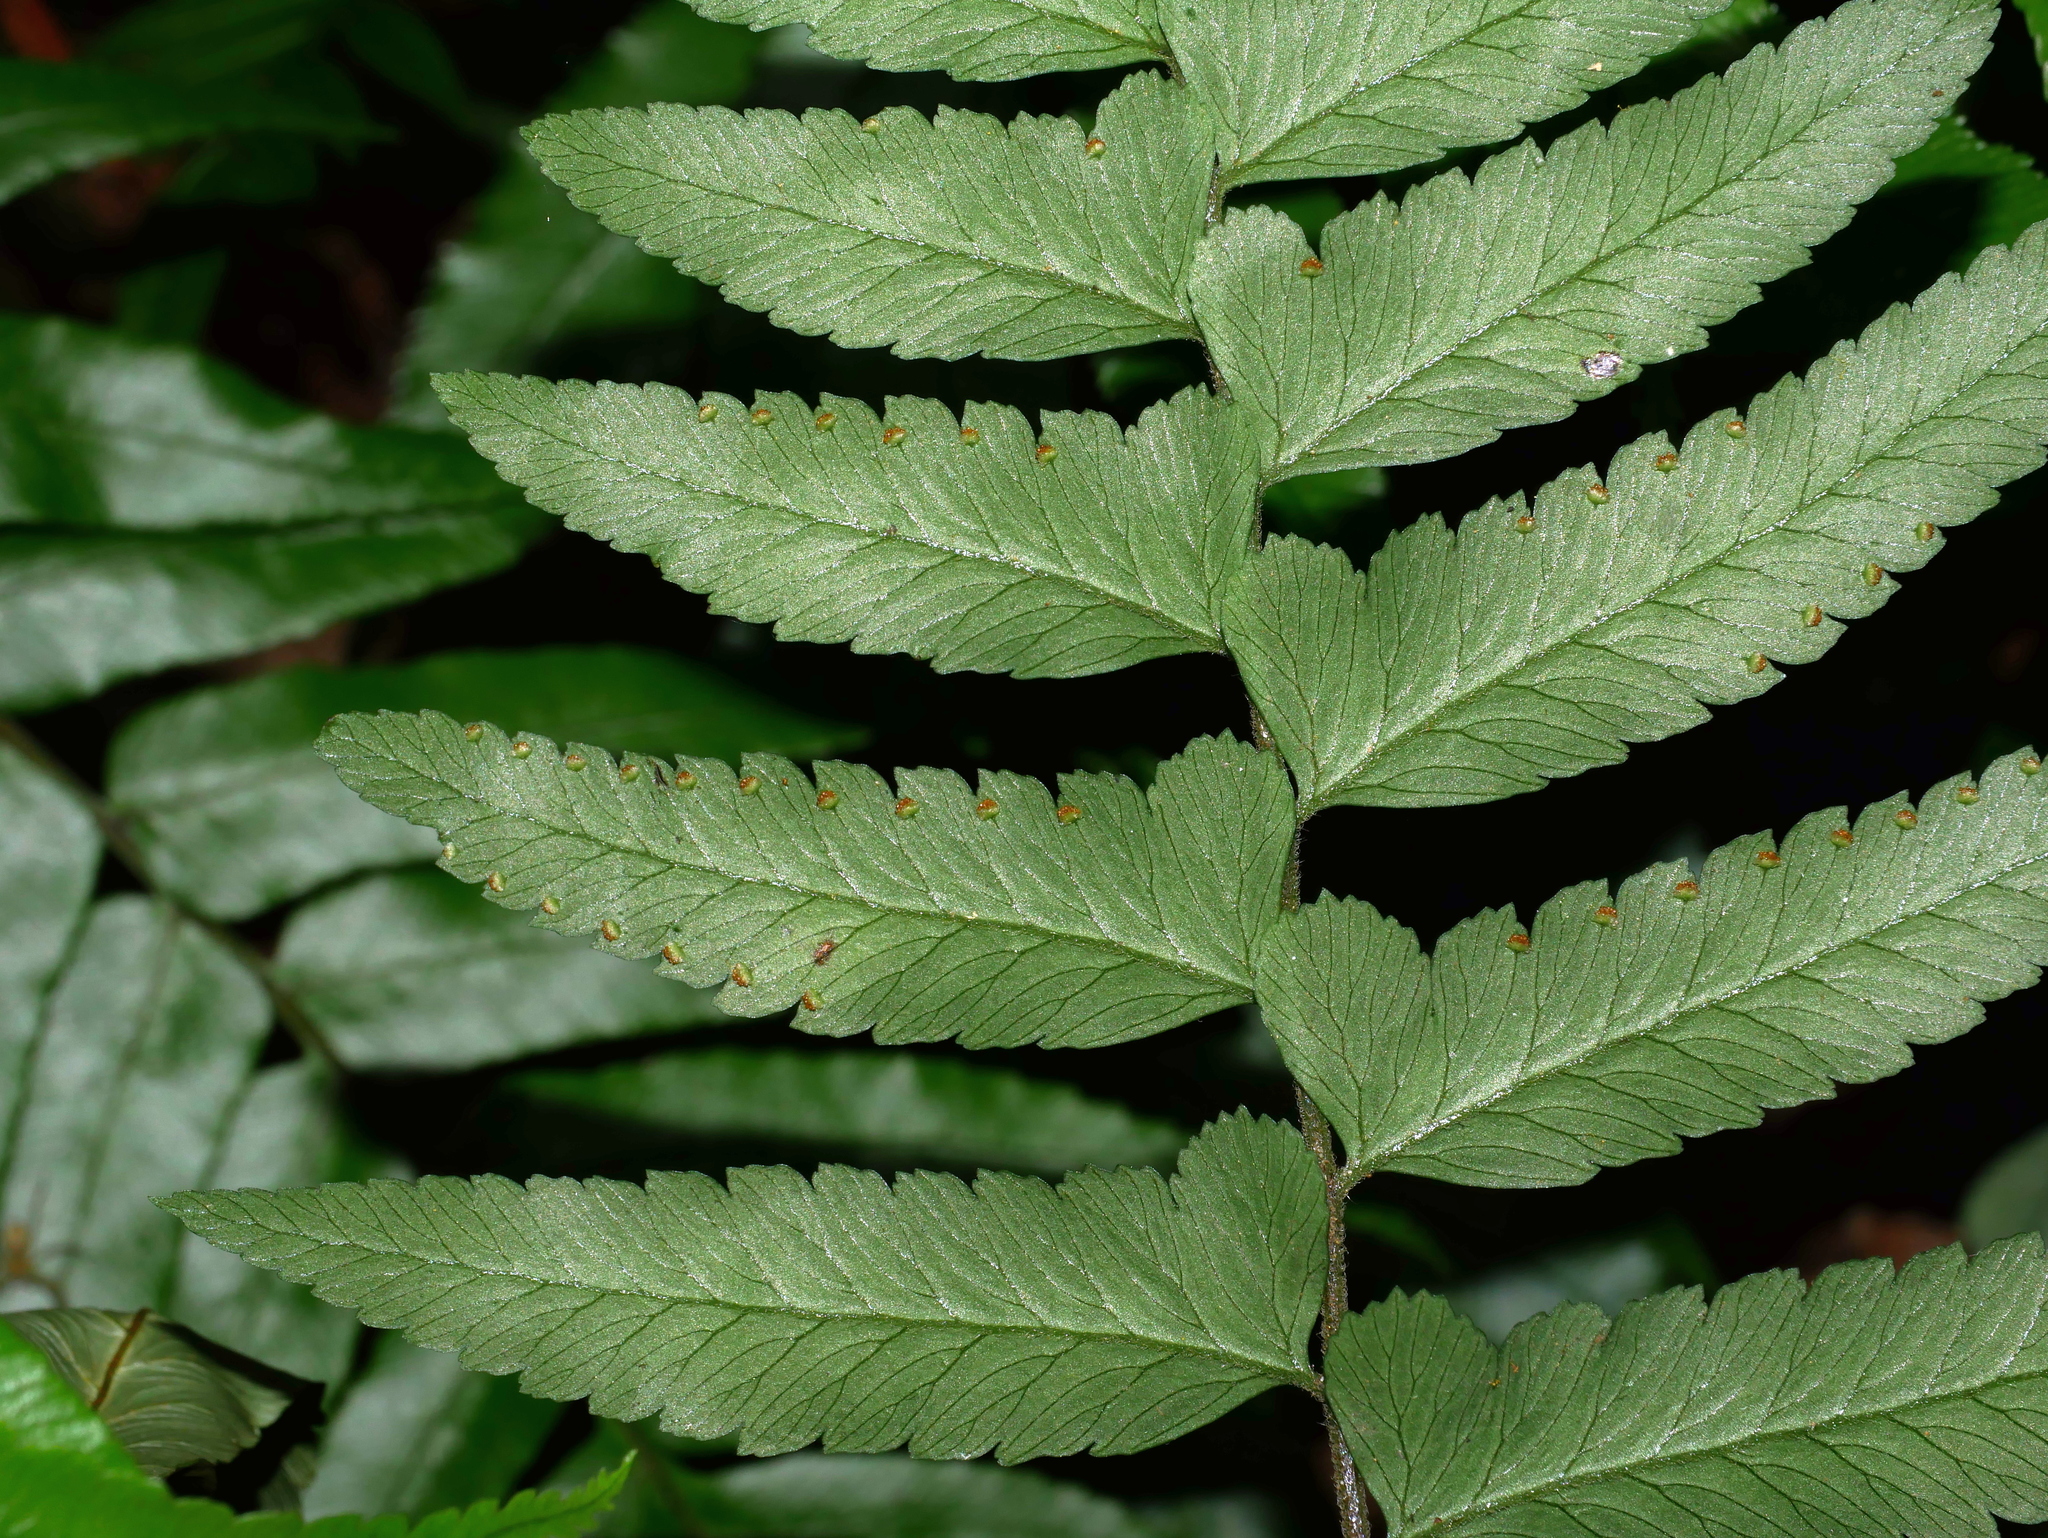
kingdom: Plantae
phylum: Tracheophyta
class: Polypodiopsida
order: Polypodiales
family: Dennstaedtiaceae
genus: Microlepia
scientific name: Microlepia bipinnata
